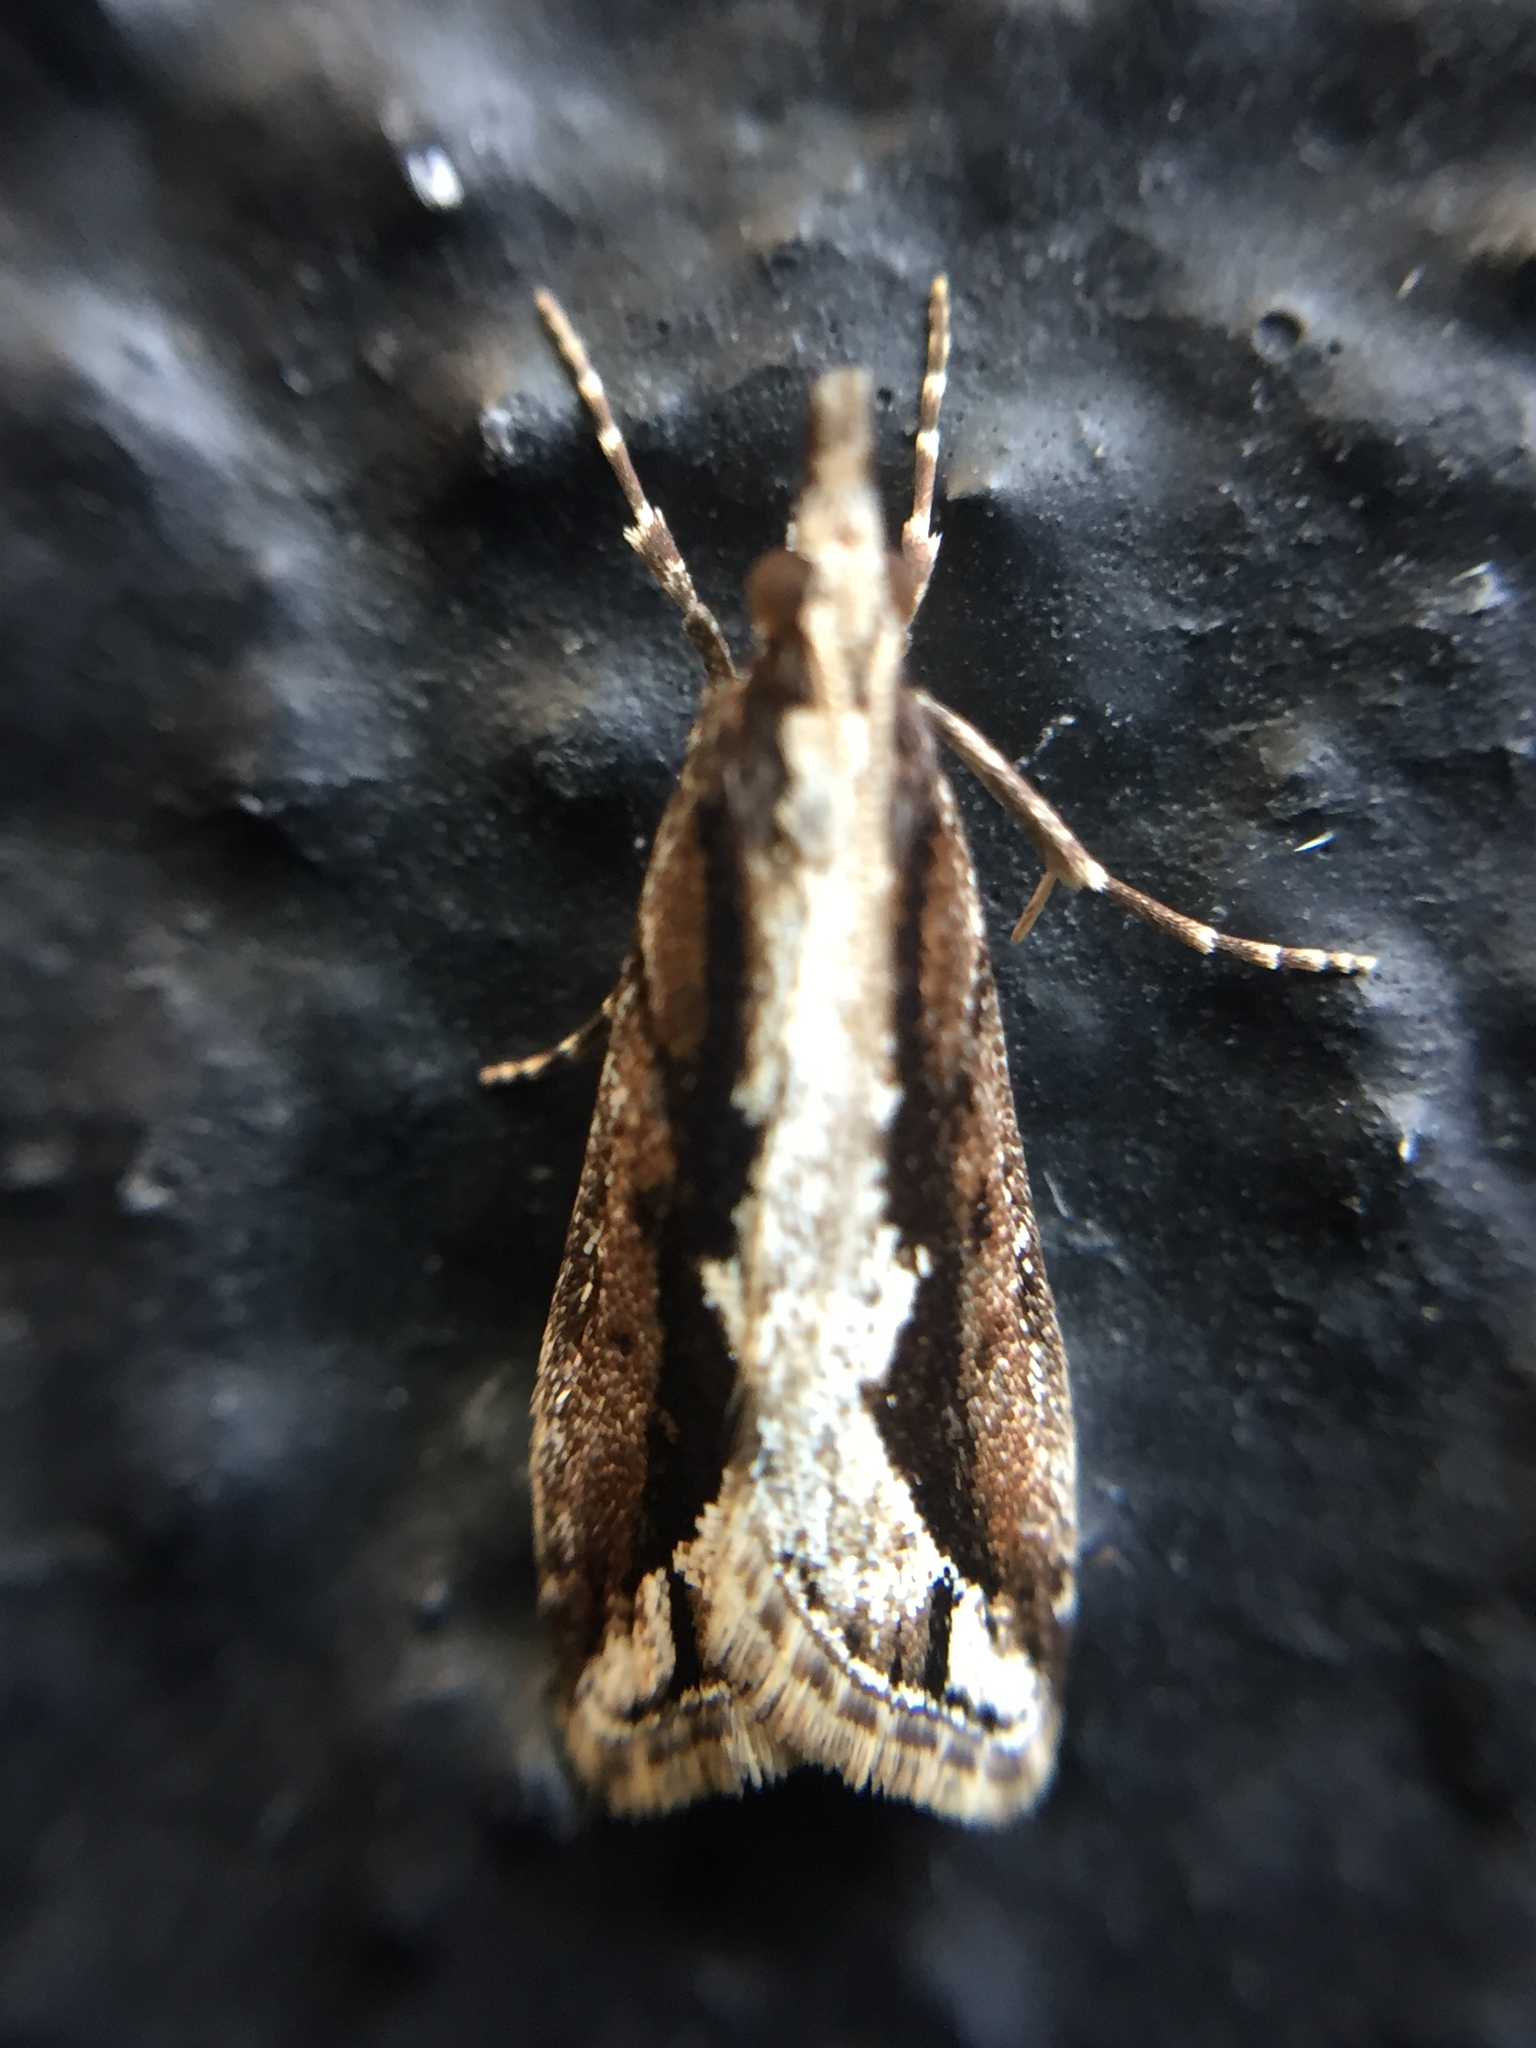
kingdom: Animalia
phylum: Arthropoda
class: Insecta
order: Lepidoptera
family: Crambidae
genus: Eudonia
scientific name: Eudonia steropaea
